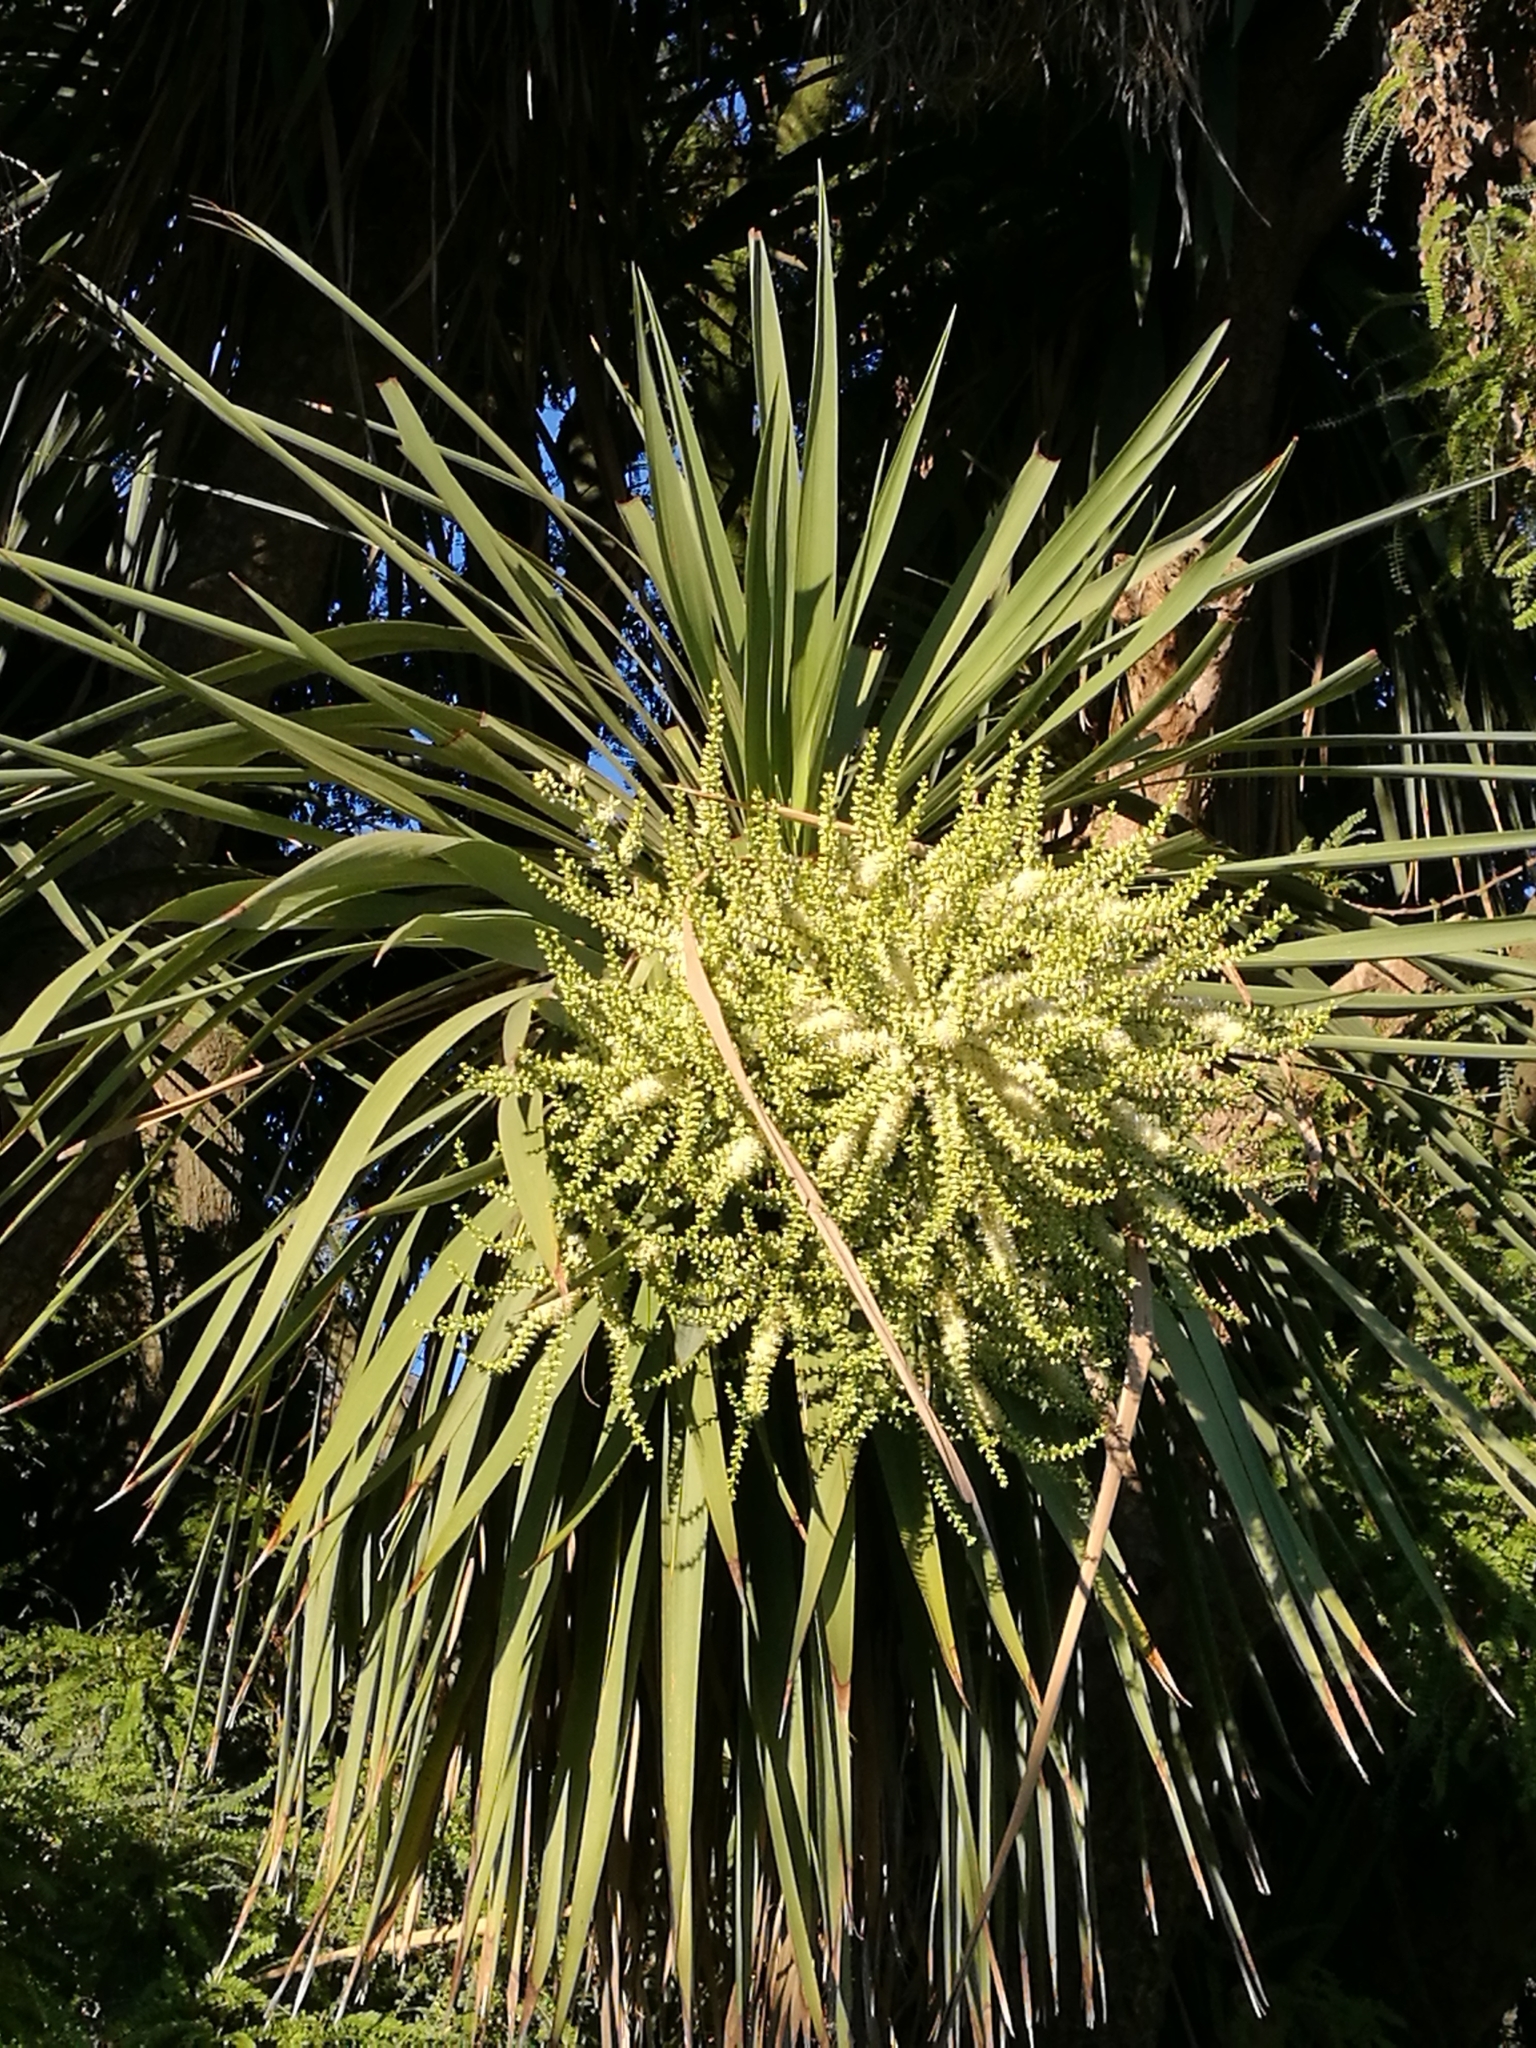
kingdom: Plantae
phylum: Tracheophyta
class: Liliopsida
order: Asparagales
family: Asparagaceae
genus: Cordyline
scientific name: Cordyline australis
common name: Cabbage-palm
